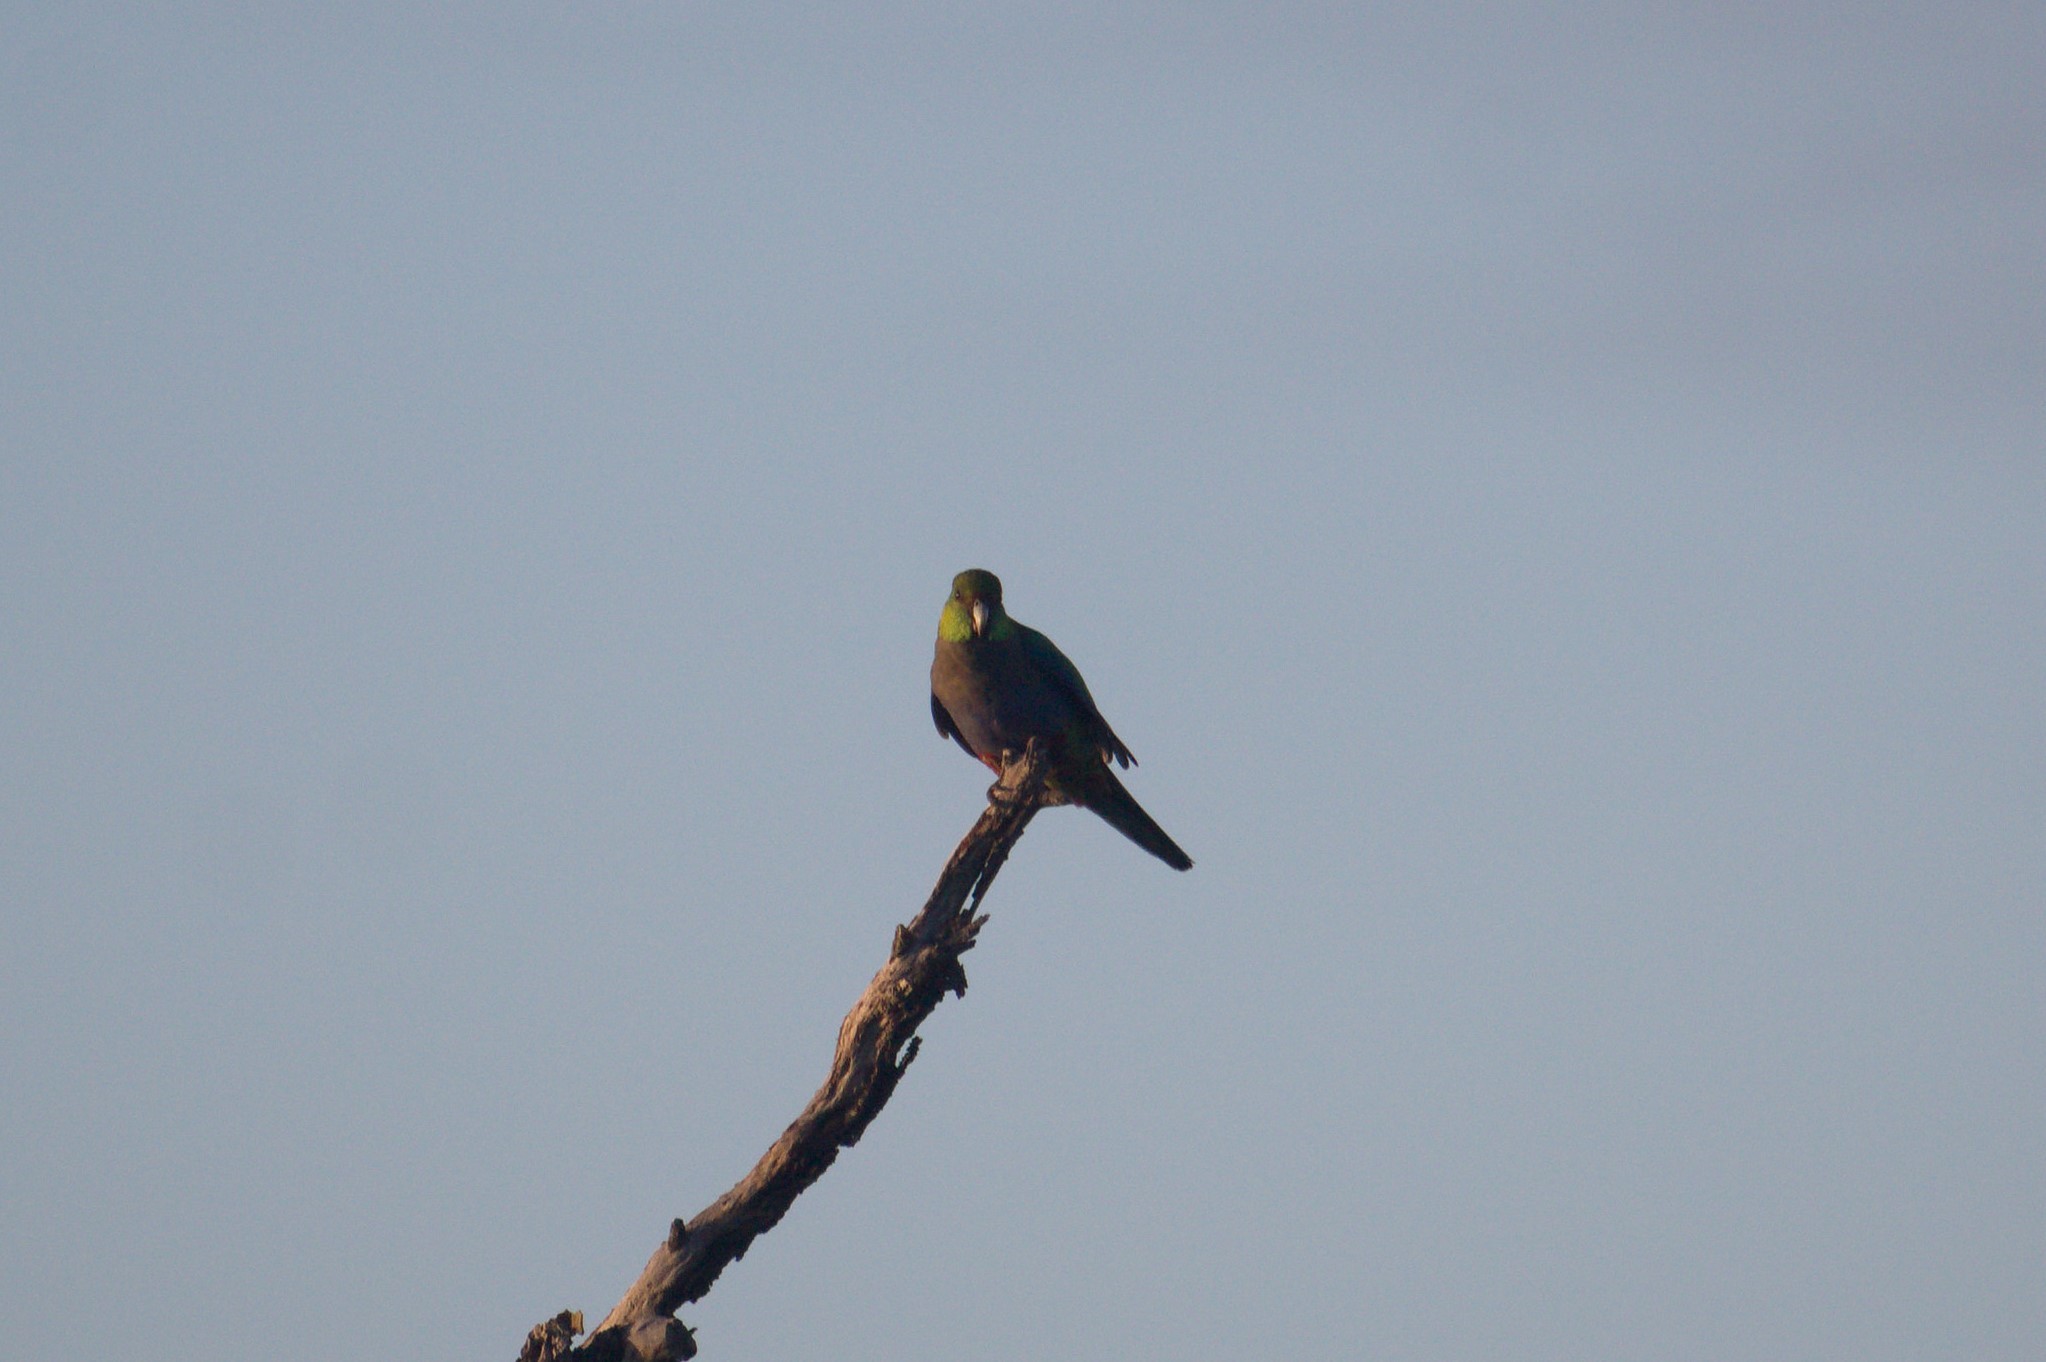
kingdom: Animalia
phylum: Chordata
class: Aves
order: Psittaciformes
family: Psittacidae
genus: Purpureicephalus
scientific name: Purpureicephalus spurius
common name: Red-capped parrot
